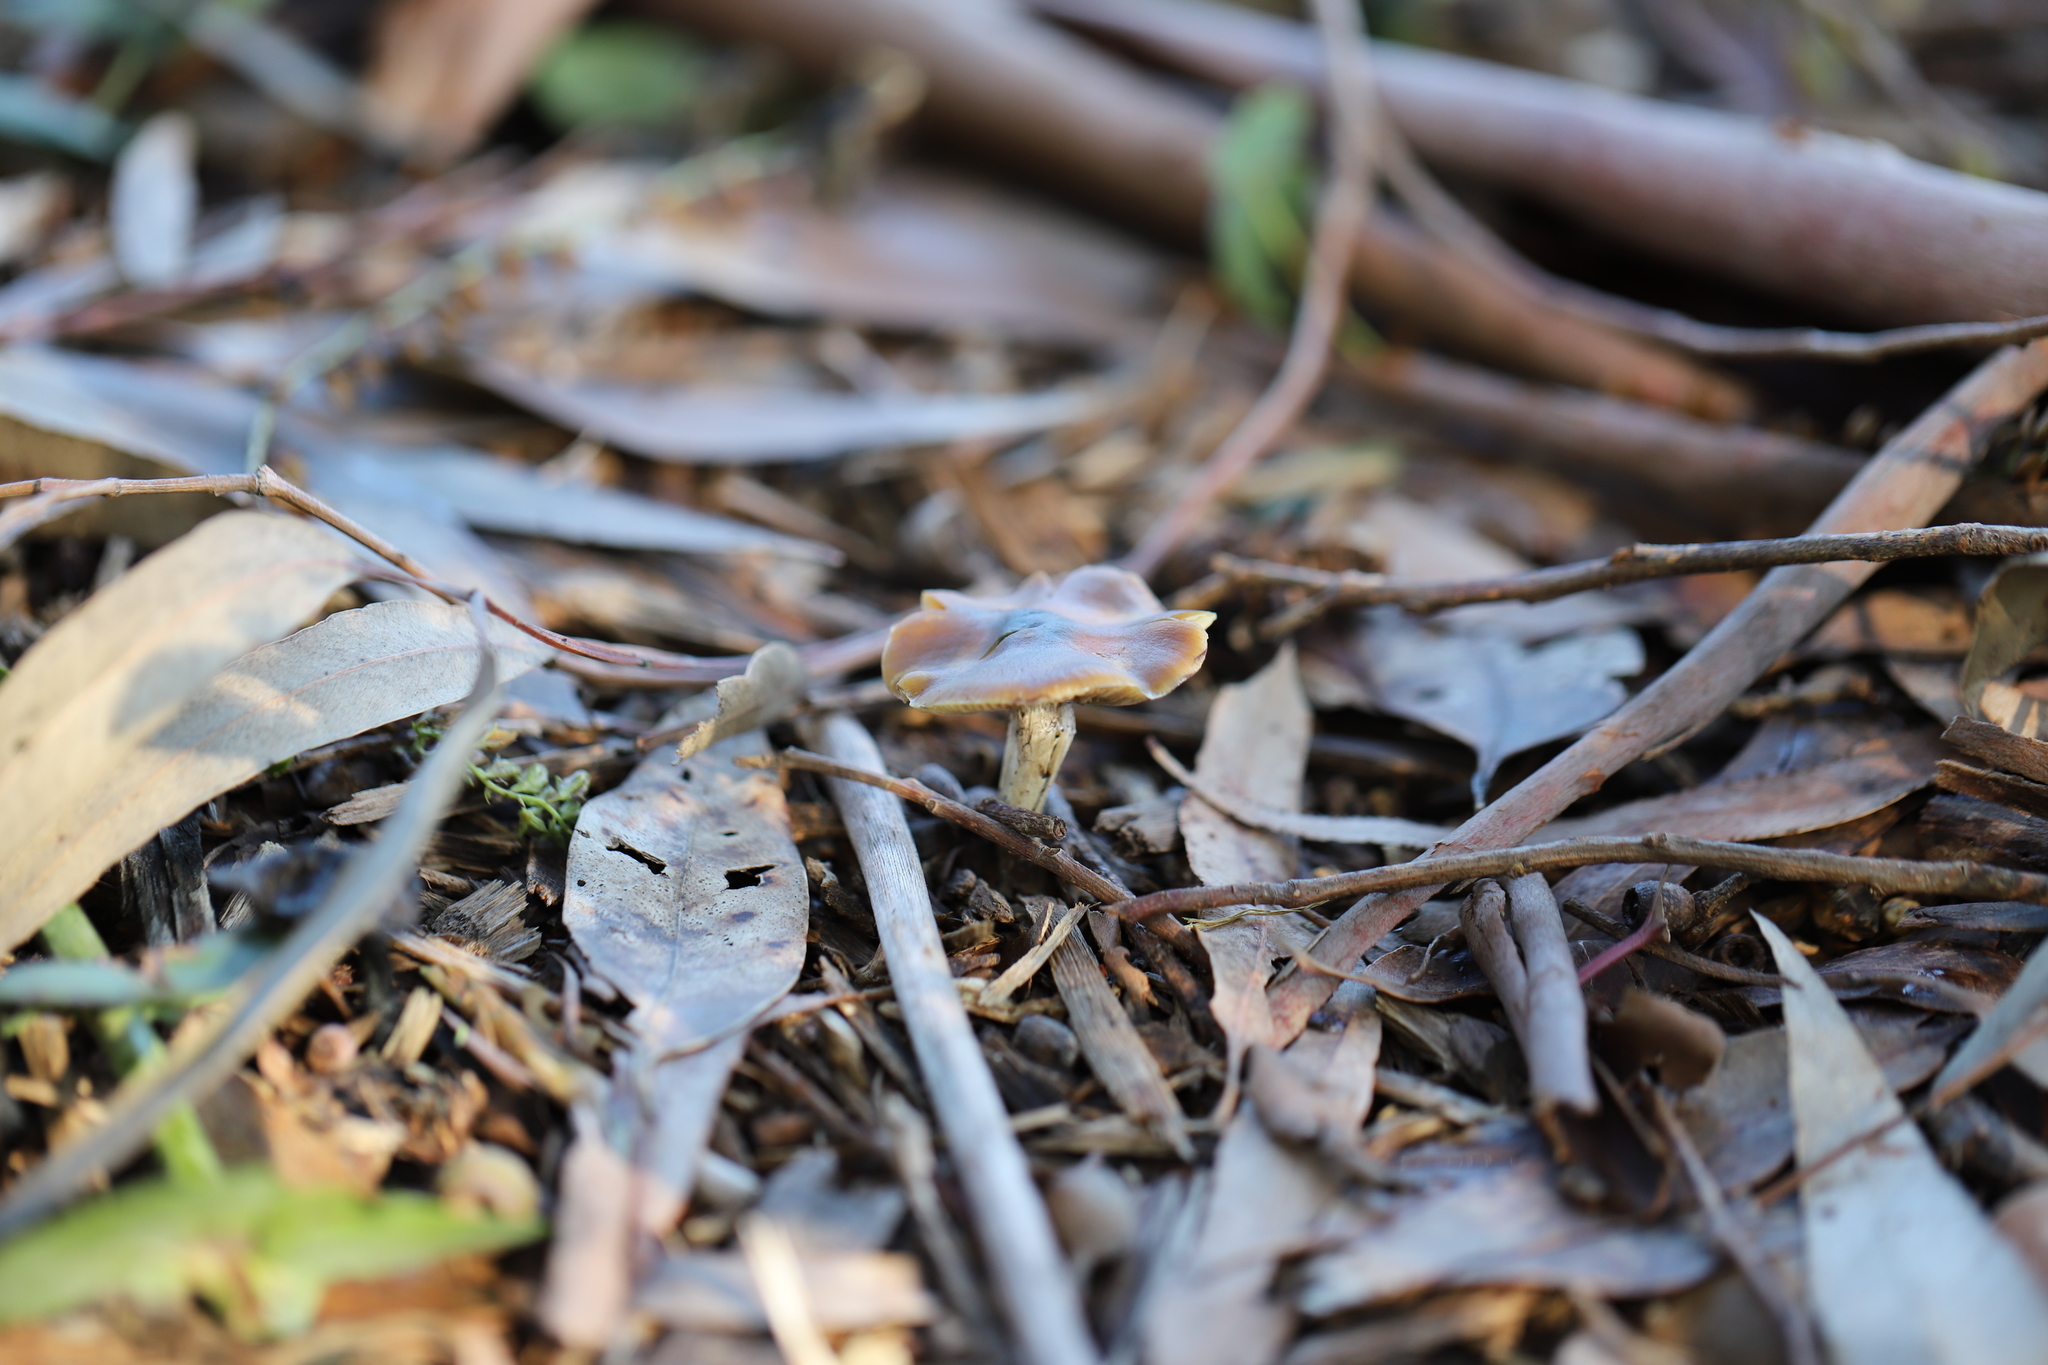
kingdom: Fungi
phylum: Basidiomycota
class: Agaricomycetes
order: Agaricales
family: Hymenogastraceae
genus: Psilocybe
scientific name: Psilocybe subaeruginosa
